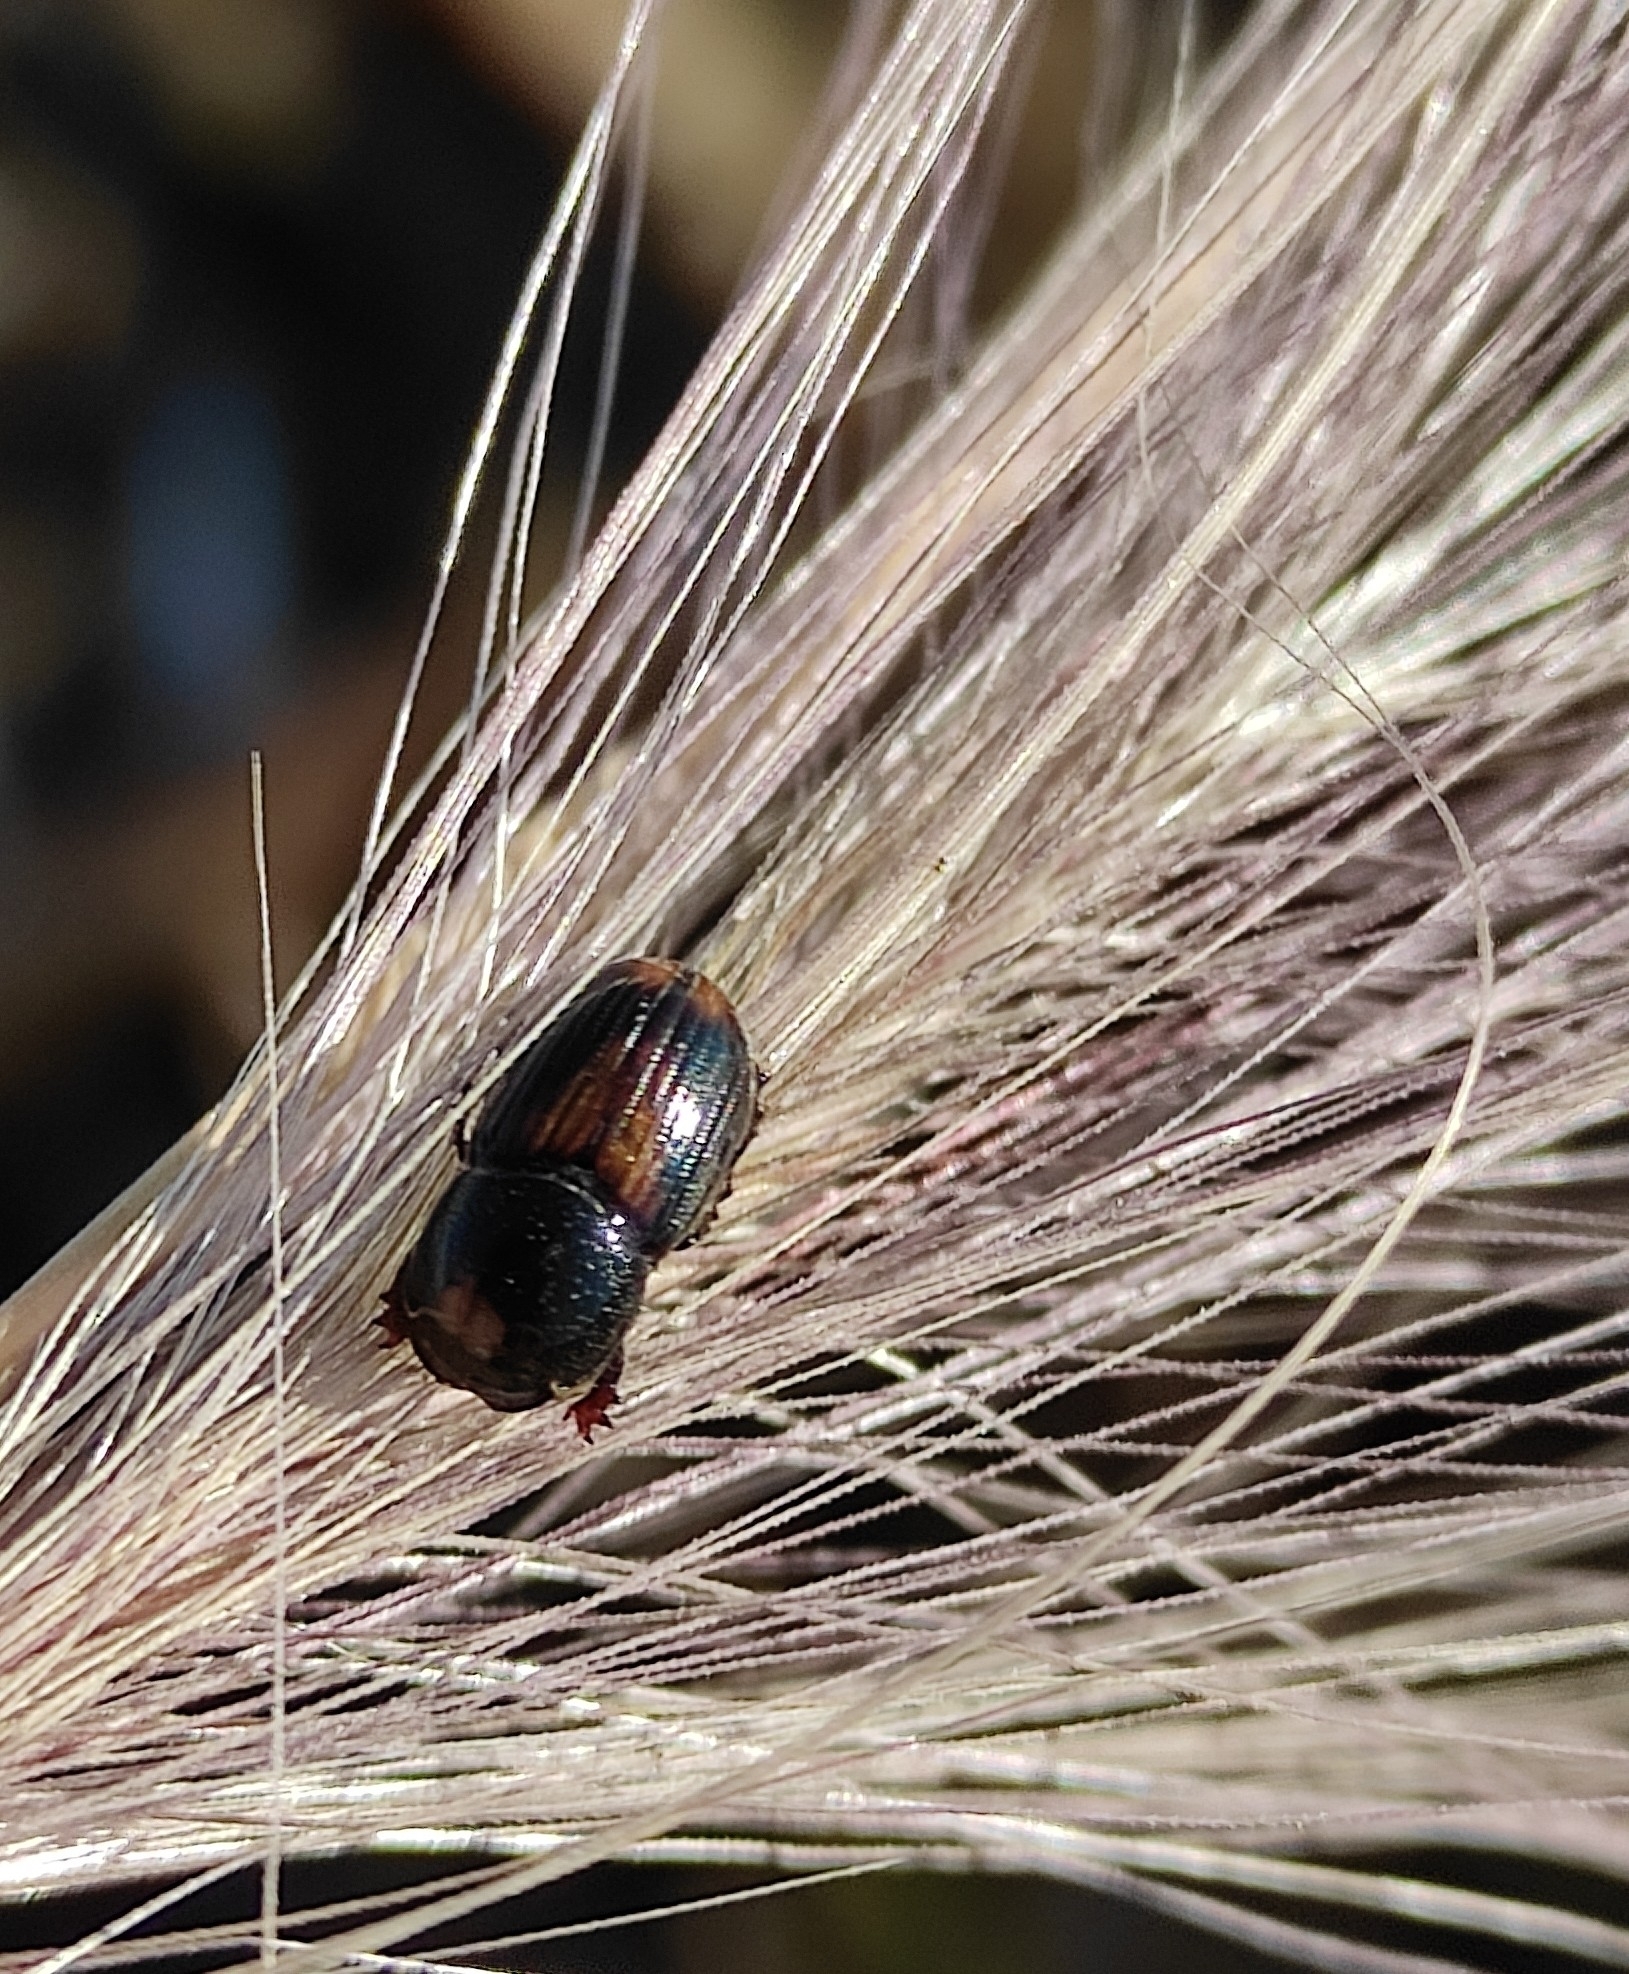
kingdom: Animalia
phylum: Arthropoda
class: Insecta
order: Coleoptera
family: Scarabaeidae
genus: Phaeaphodius
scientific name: Phaeaphodius rectus
